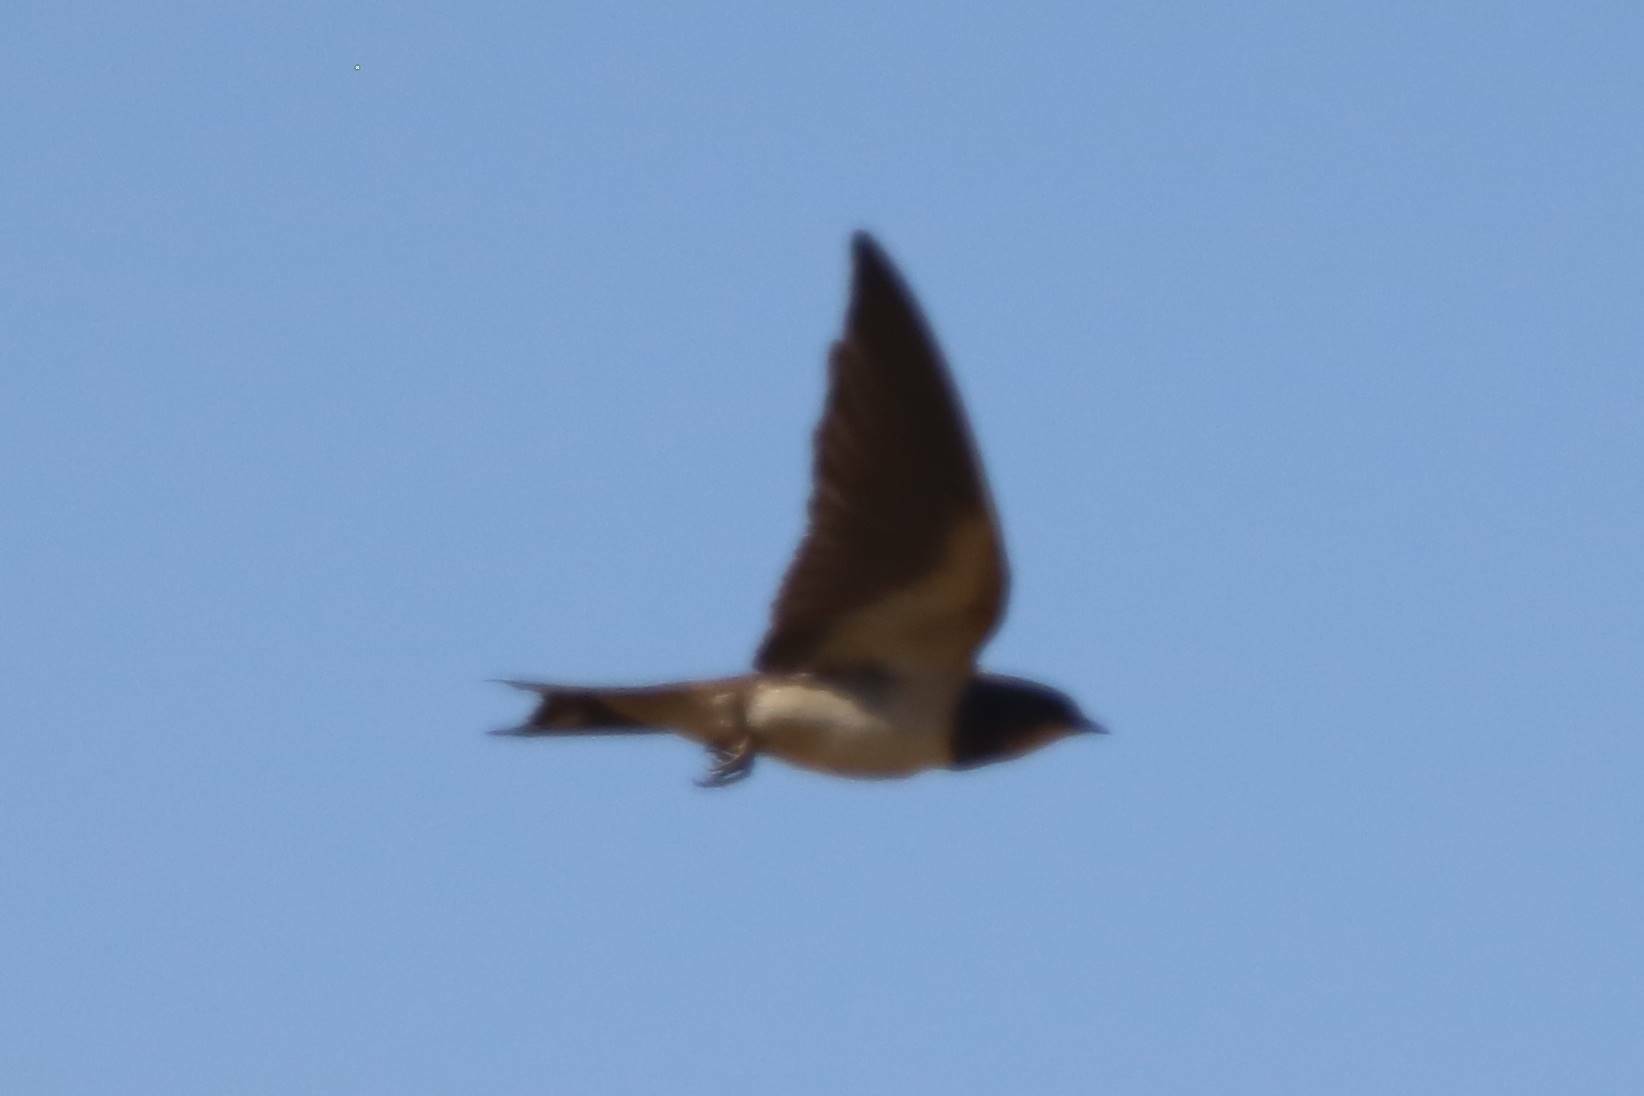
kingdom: Animalia
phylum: Chordata
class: Aves
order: Passeriformes
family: Hirundinidae
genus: Hirundo
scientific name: Hirundo rustica
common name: Barn swallow
